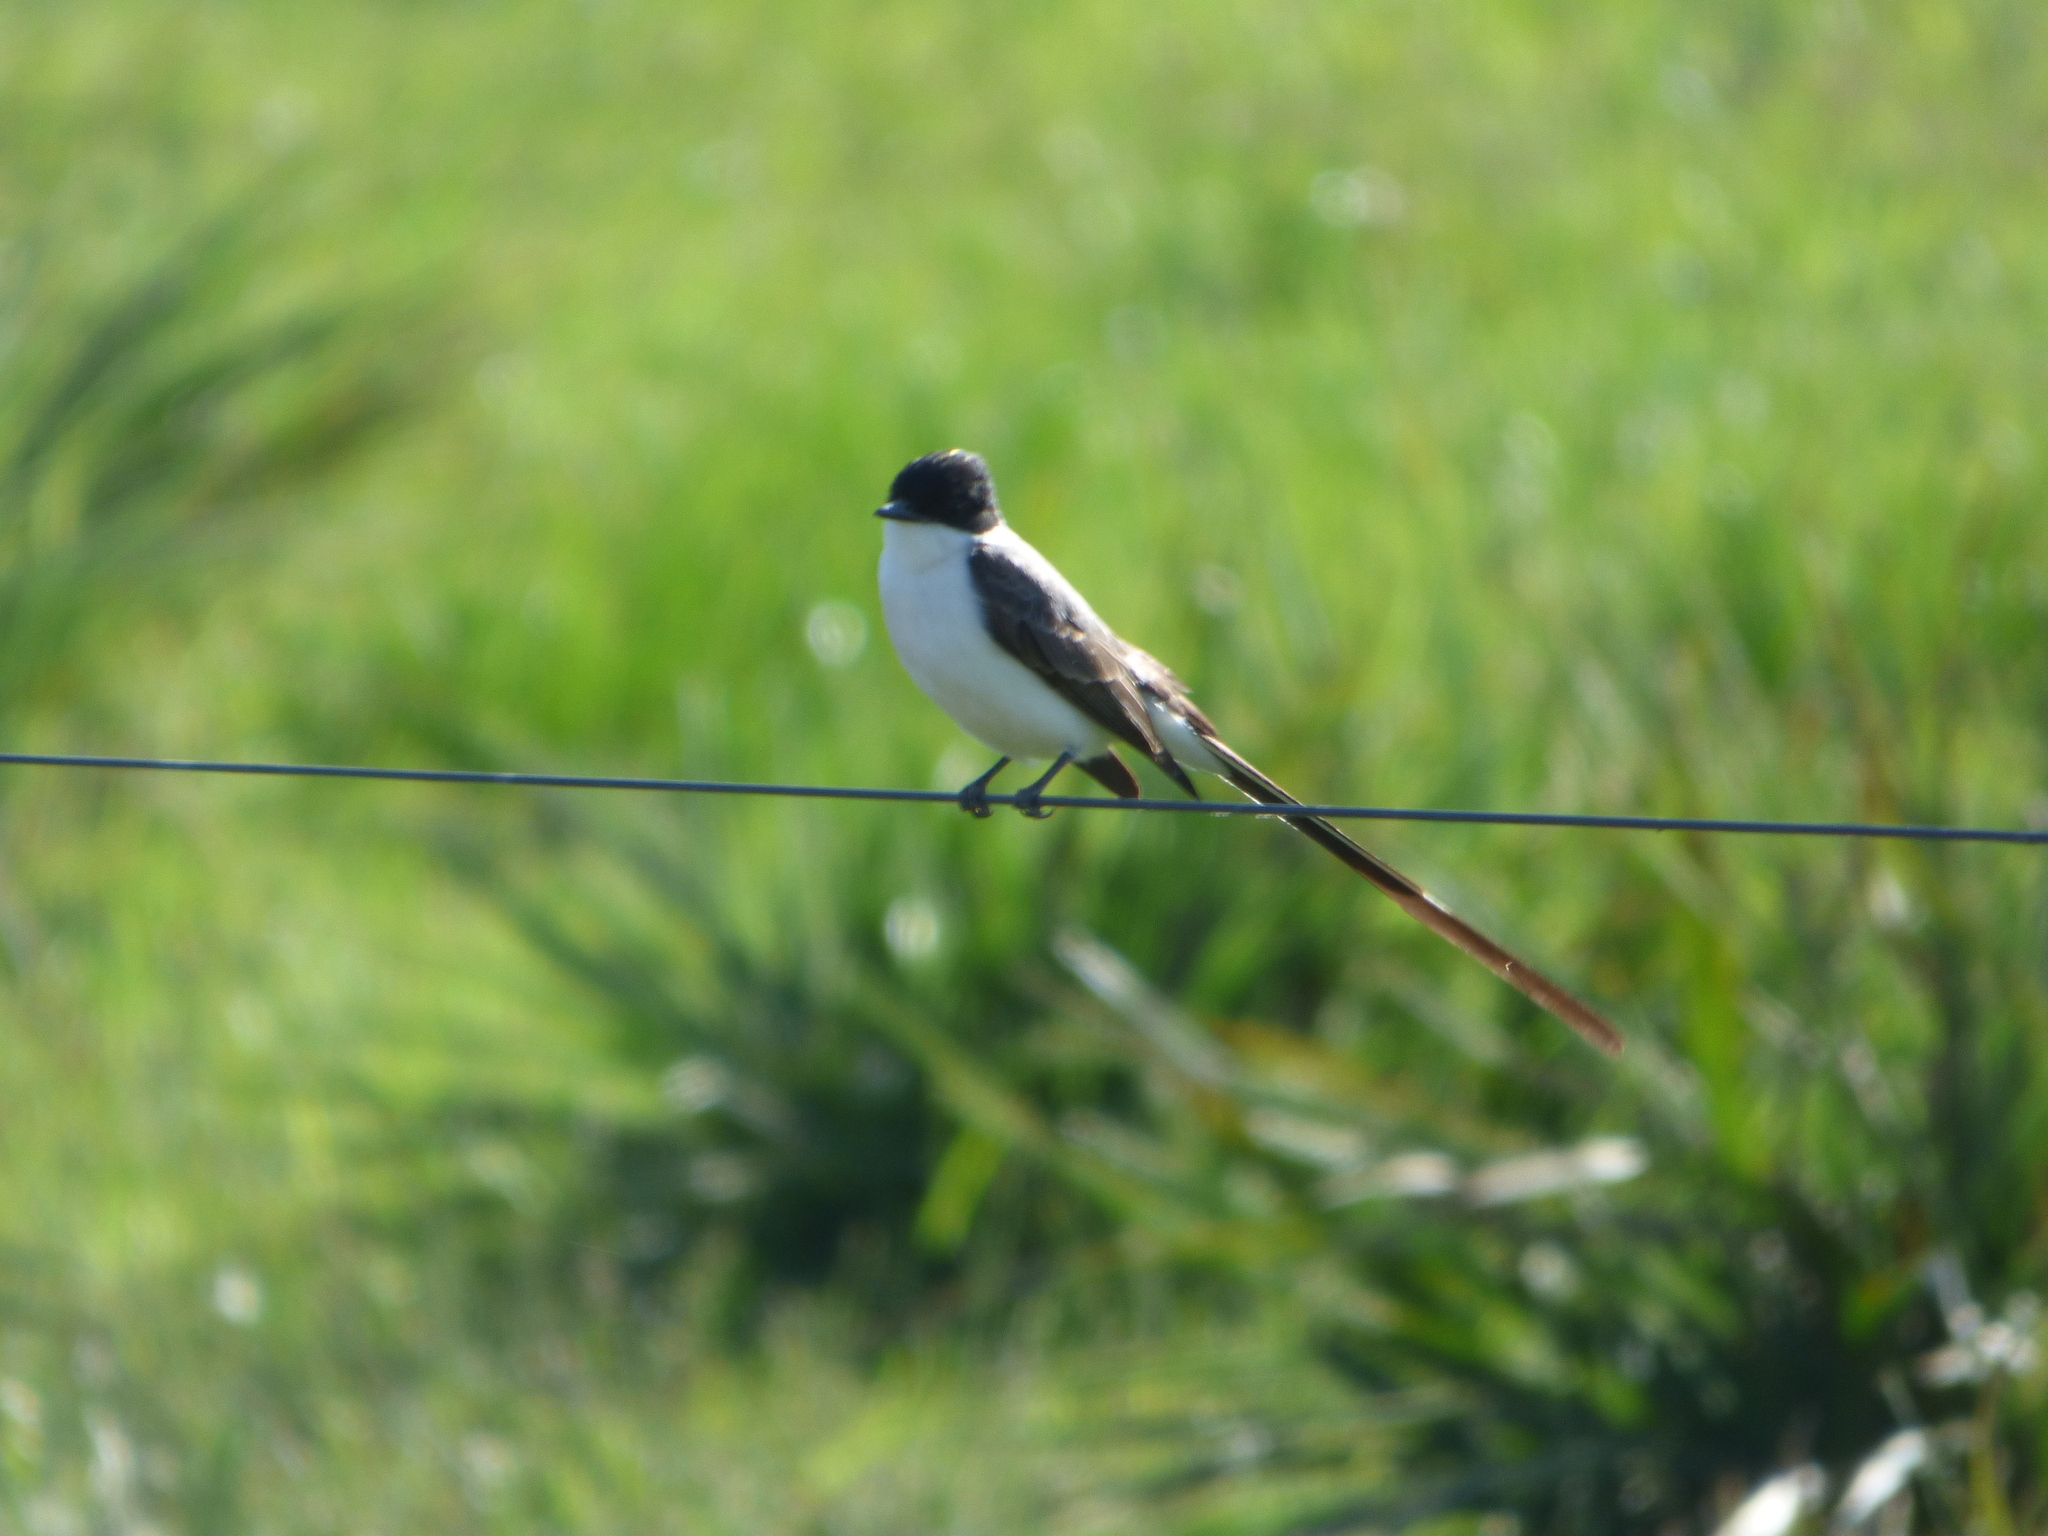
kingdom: Animalia
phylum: Chordata
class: Aves
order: Passeriformes
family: Tyrannidae
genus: Tyrannus
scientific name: Tyrannus savana
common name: Fork-tailed flycatcher
